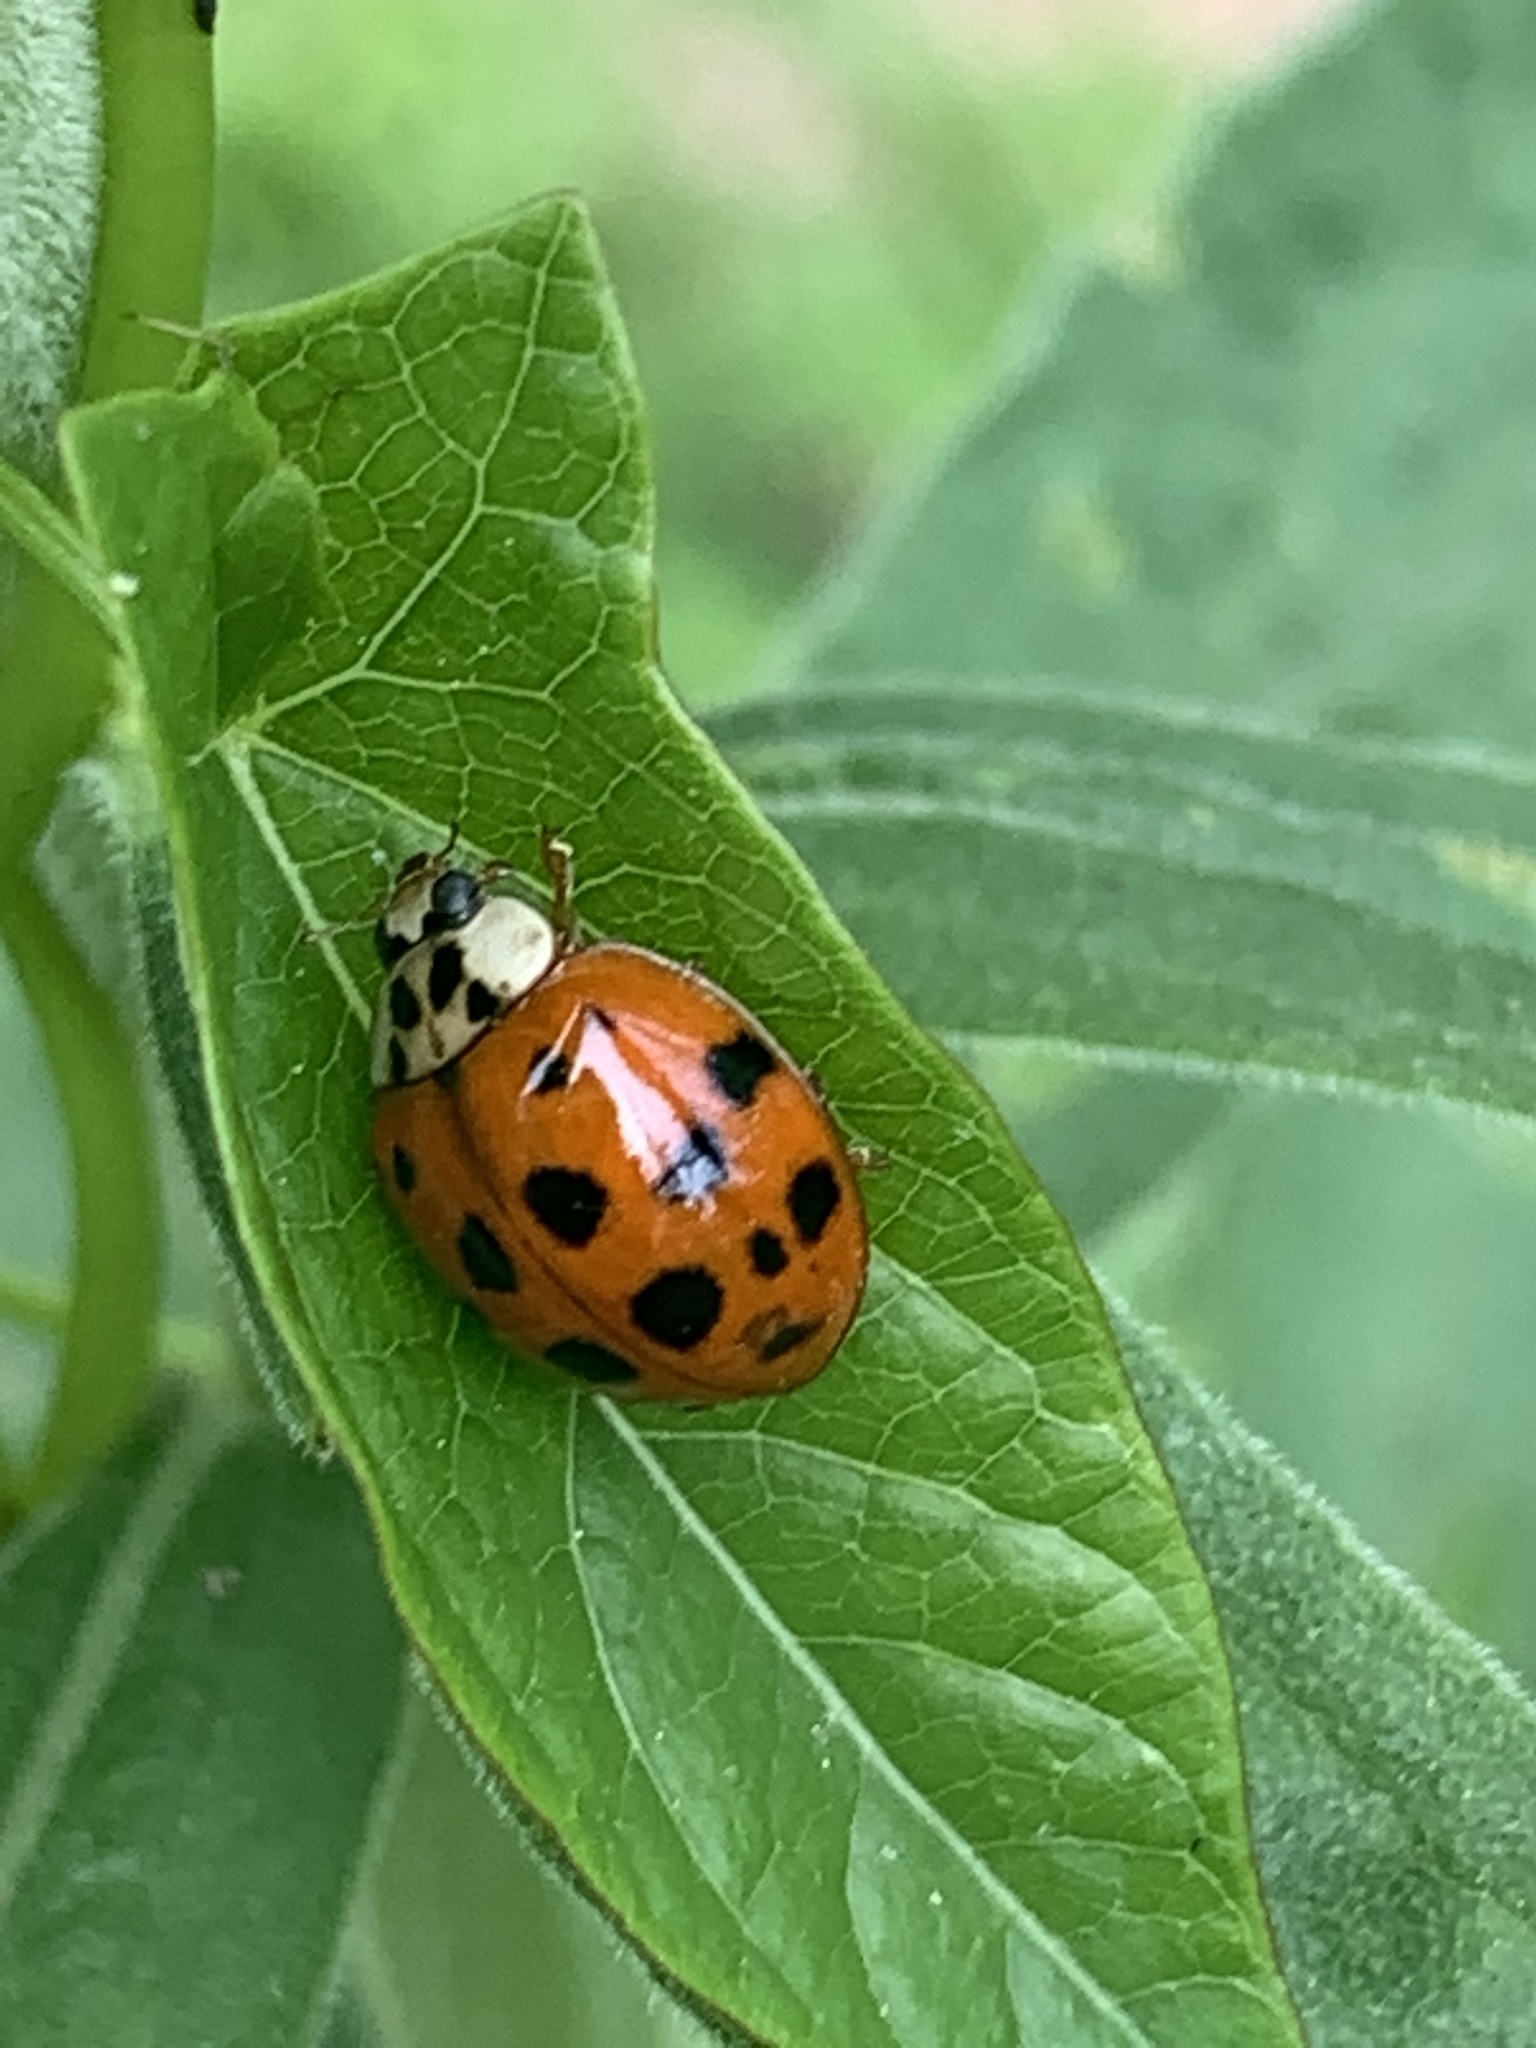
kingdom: Animalia
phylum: Arthropoda
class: Insecta
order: Coleoptera
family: Coccinellidae
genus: Harmonia
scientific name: Harmonia axyridis
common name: Harlequin ladybird
